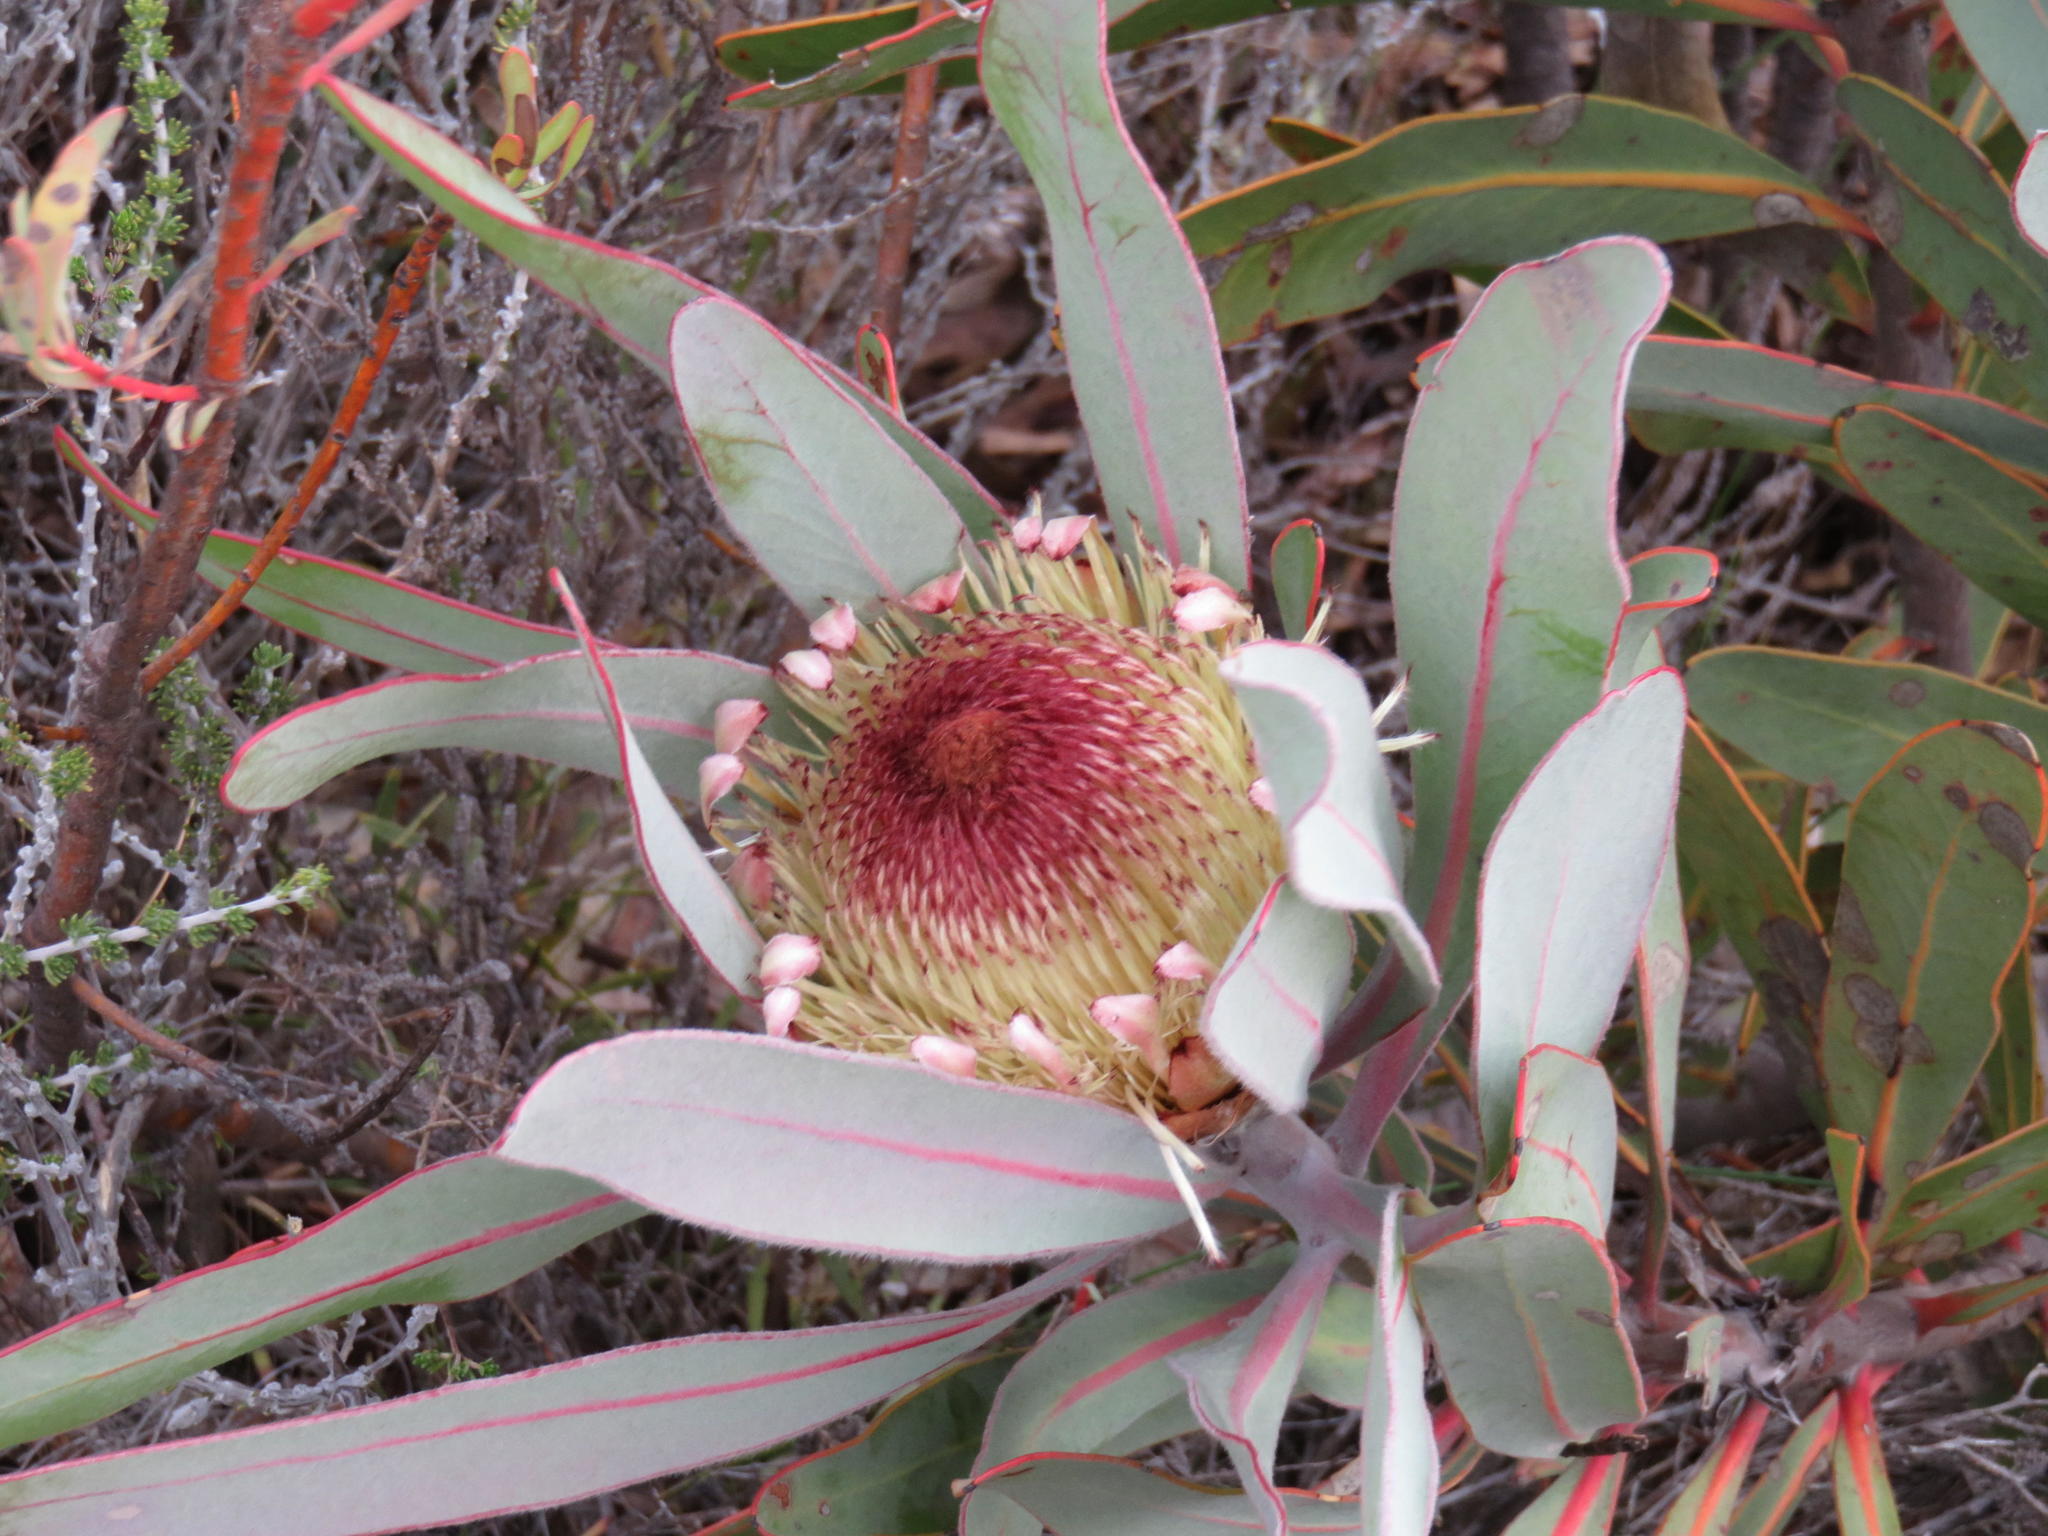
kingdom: Plantae
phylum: Tracheophyta
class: Magnoliopsida
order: Proteales
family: Proteaceae
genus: Protea
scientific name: Protea lorifolia
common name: Strap-leaved protea
